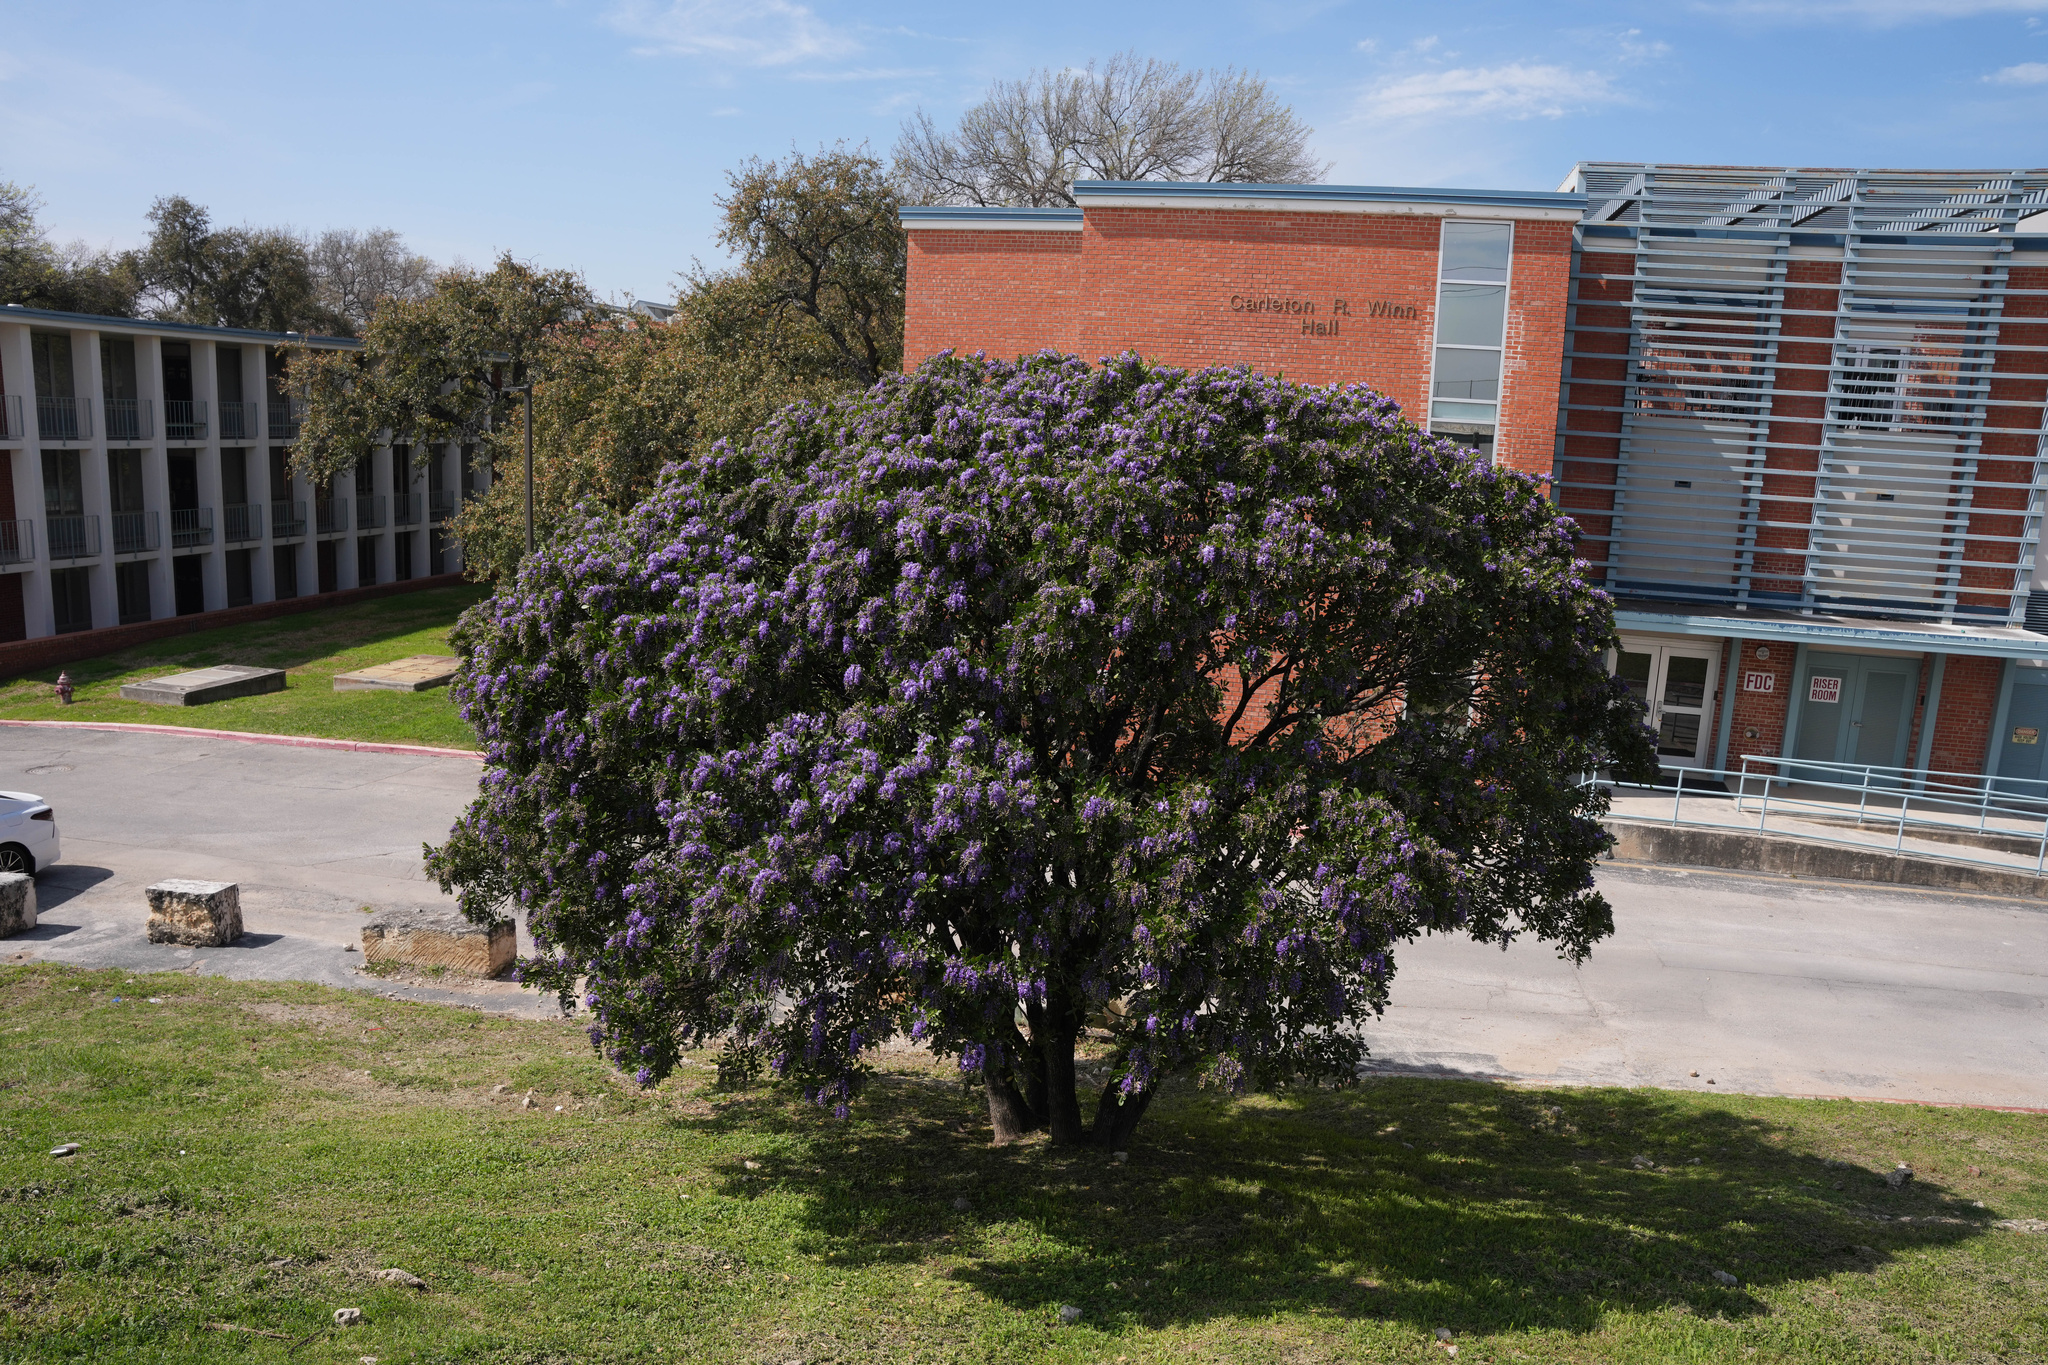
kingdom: Plantae
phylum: Tracheophyta
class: Magnoliopsida
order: Fabales
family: Fabaceae
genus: Dermatophyllum
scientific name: Dermatophyllum secundiflorum
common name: Texas-mountain-laurel
